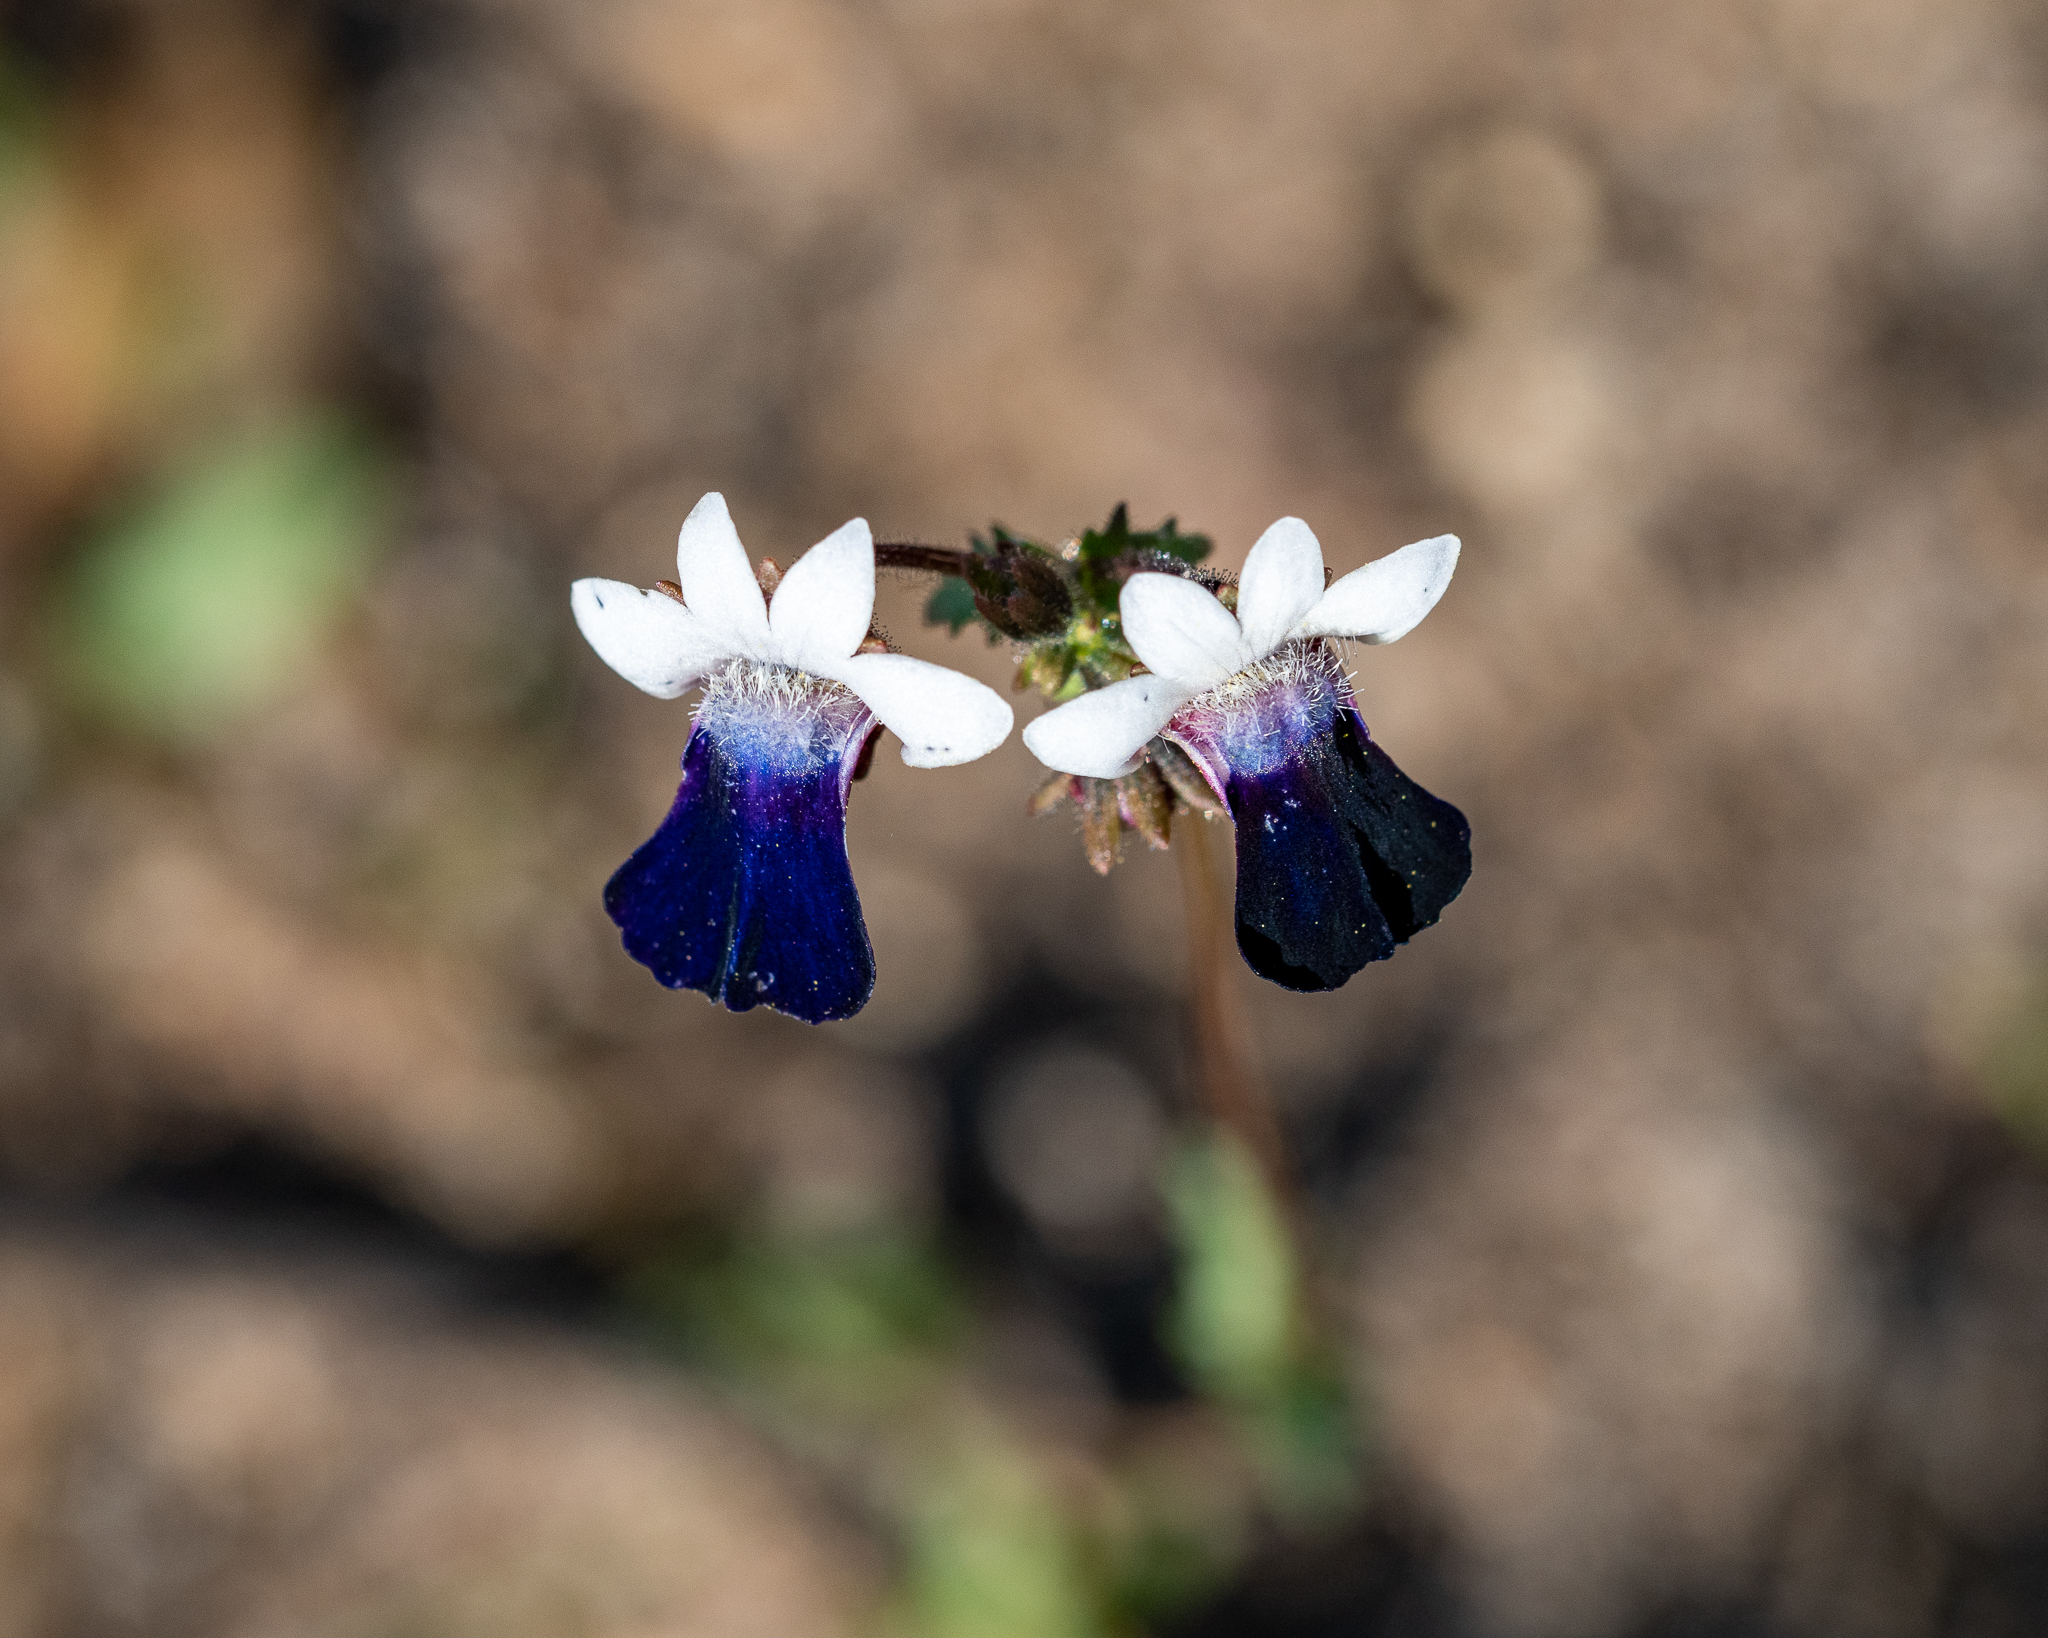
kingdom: Plantae
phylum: Tracheophyta
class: Magnoliopsida
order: Lamiales
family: Scrophulariaceae
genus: Nemesia
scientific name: Nemesia barbata
